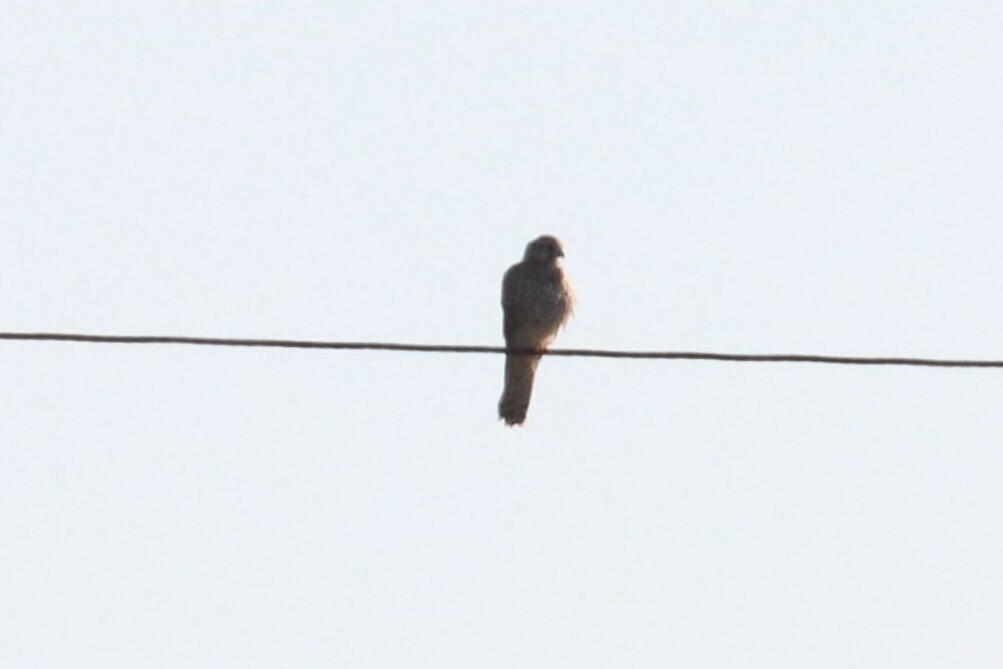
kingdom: Animalia
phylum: Chordata
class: Aves
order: Falconiformes
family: Falconidae
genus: Falco
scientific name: Falco tinnunculus
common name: Common kestrel
